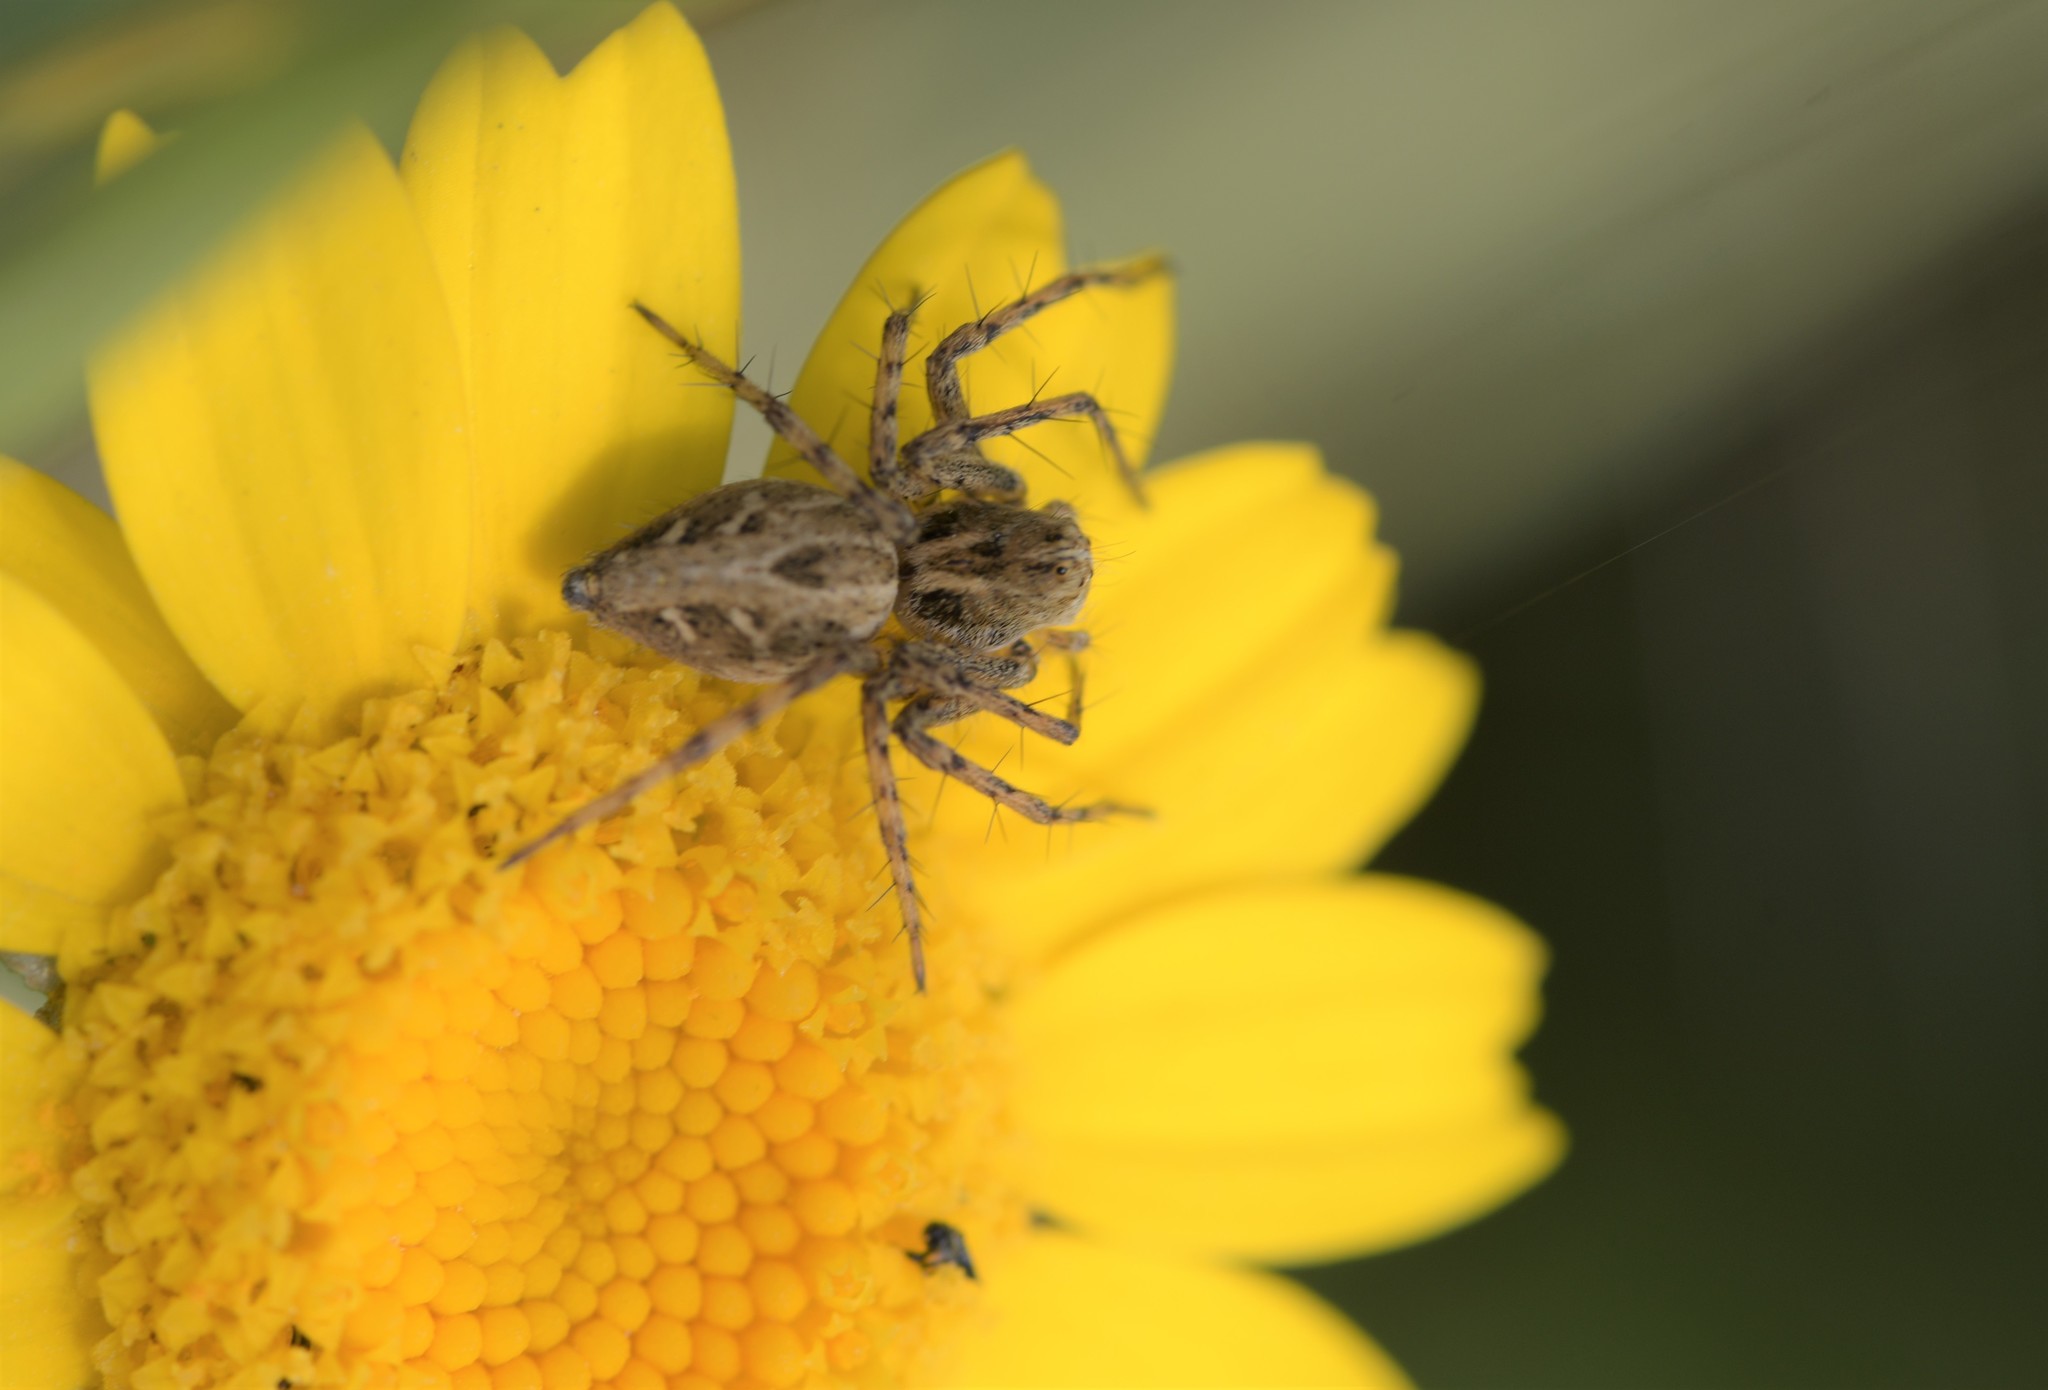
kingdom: Animalia
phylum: Arthropoda
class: Arachnida
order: Araneae
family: Oxyopidae
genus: Oxyopes
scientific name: Oxyopes heterophthalmus
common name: Lynx spider
